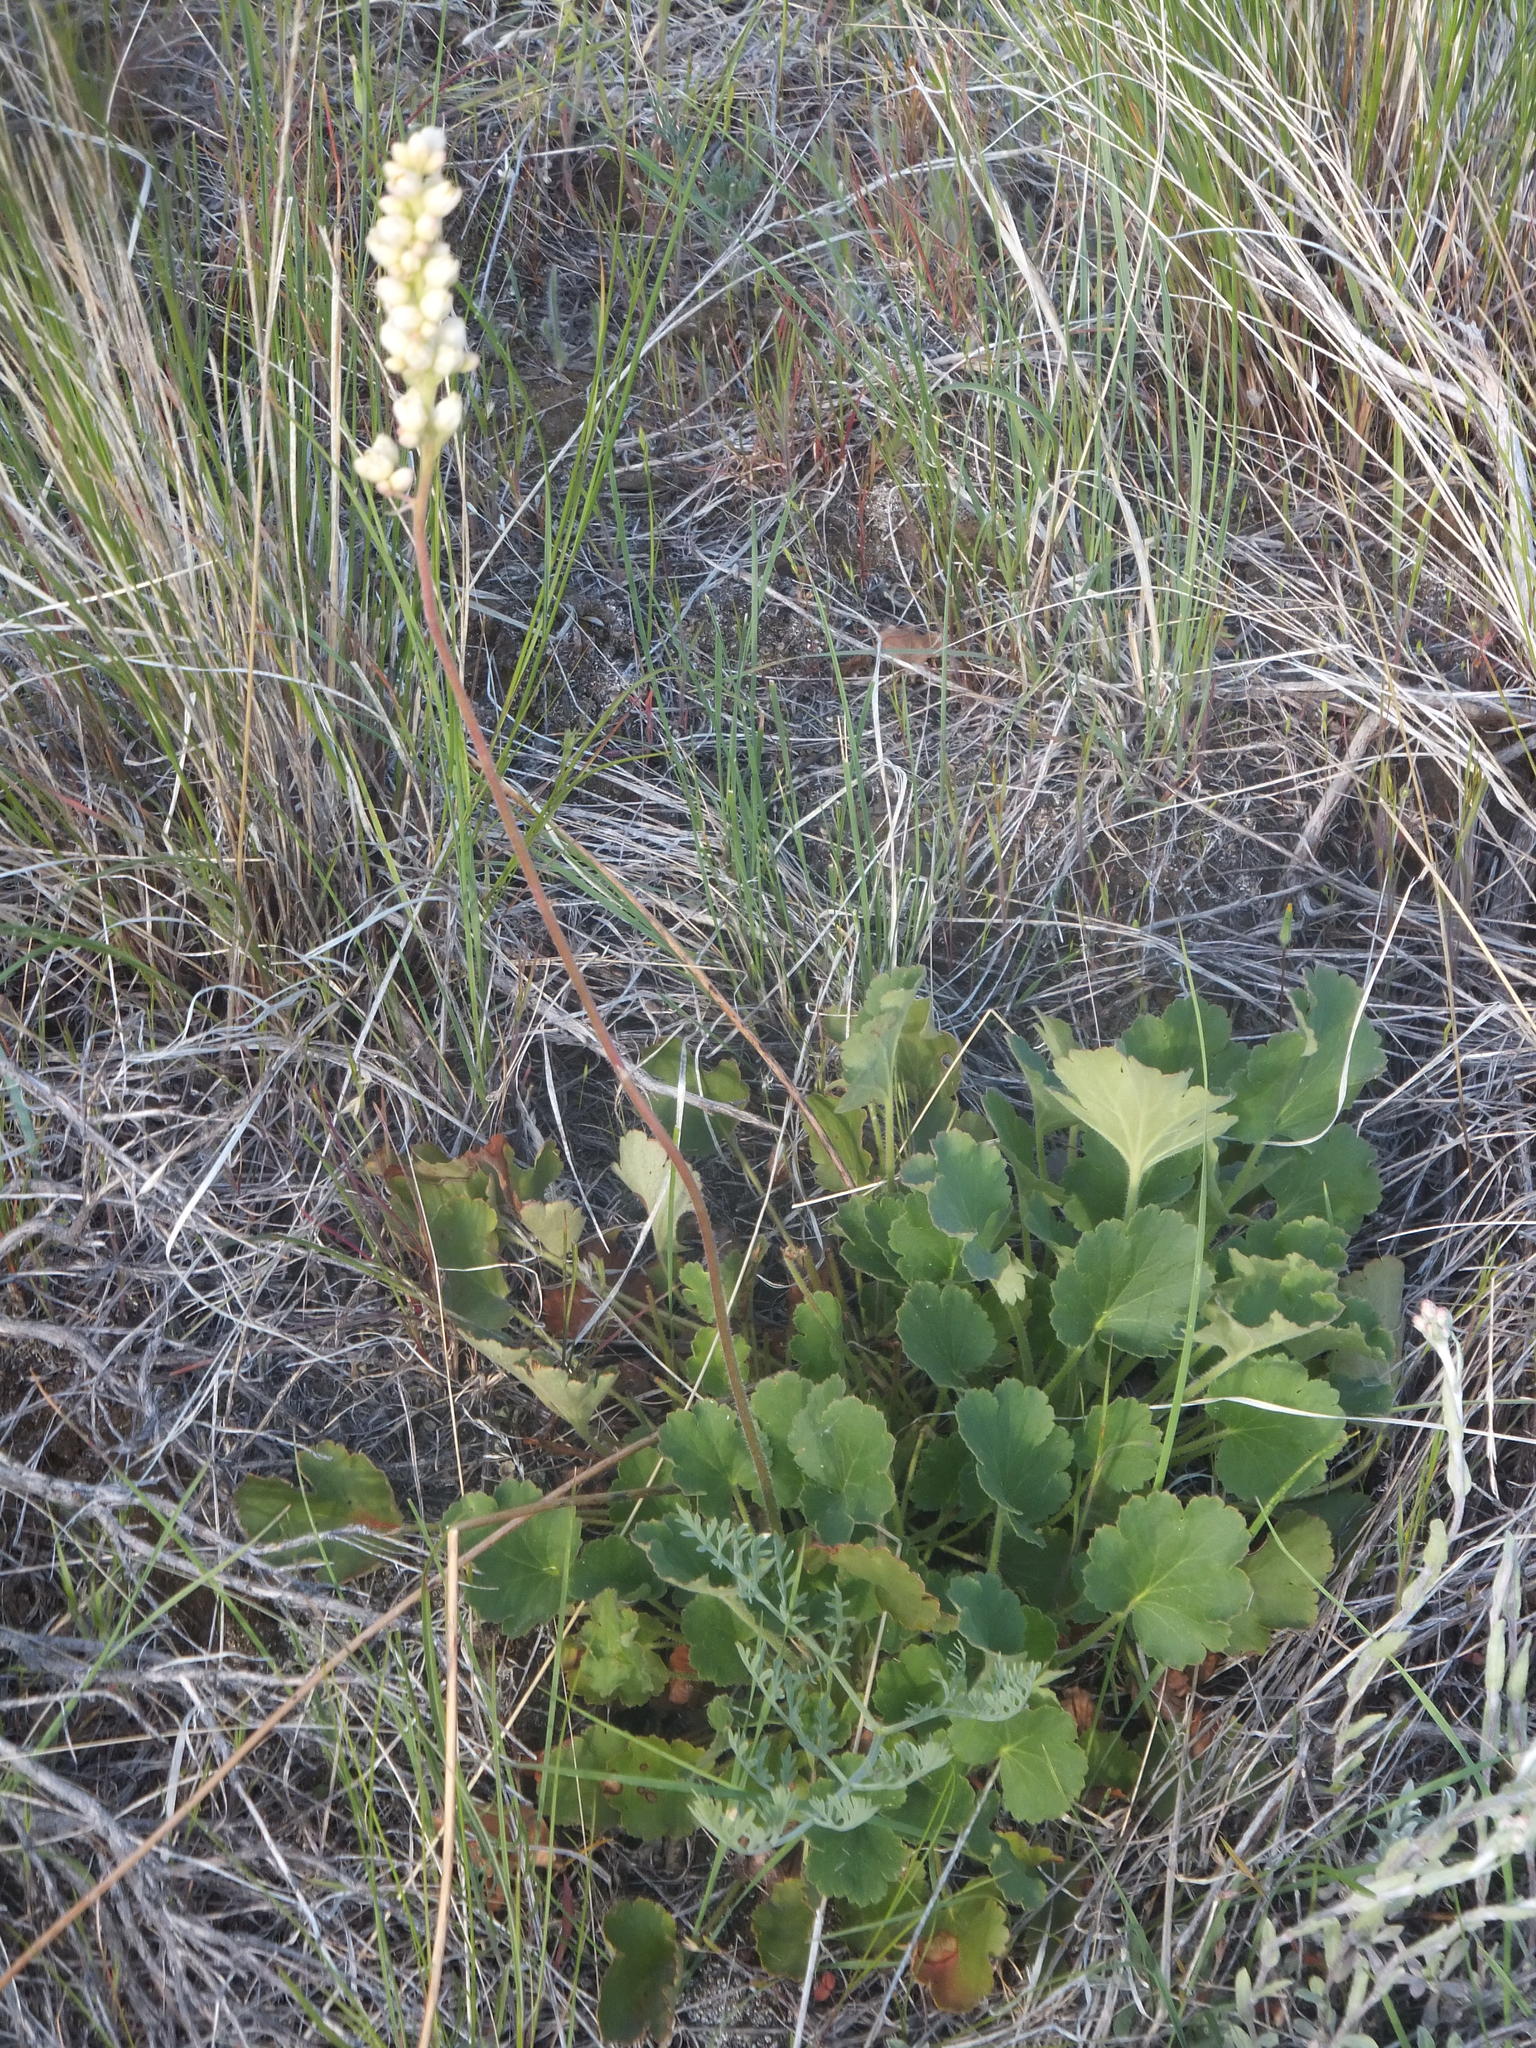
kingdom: Plantae
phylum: Tracheophyta
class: Magnoliopsida
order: Saxifragales
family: Saxifragaceae
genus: Heuchera
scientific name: Heuchera cylindrica
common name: Mat alumroot
